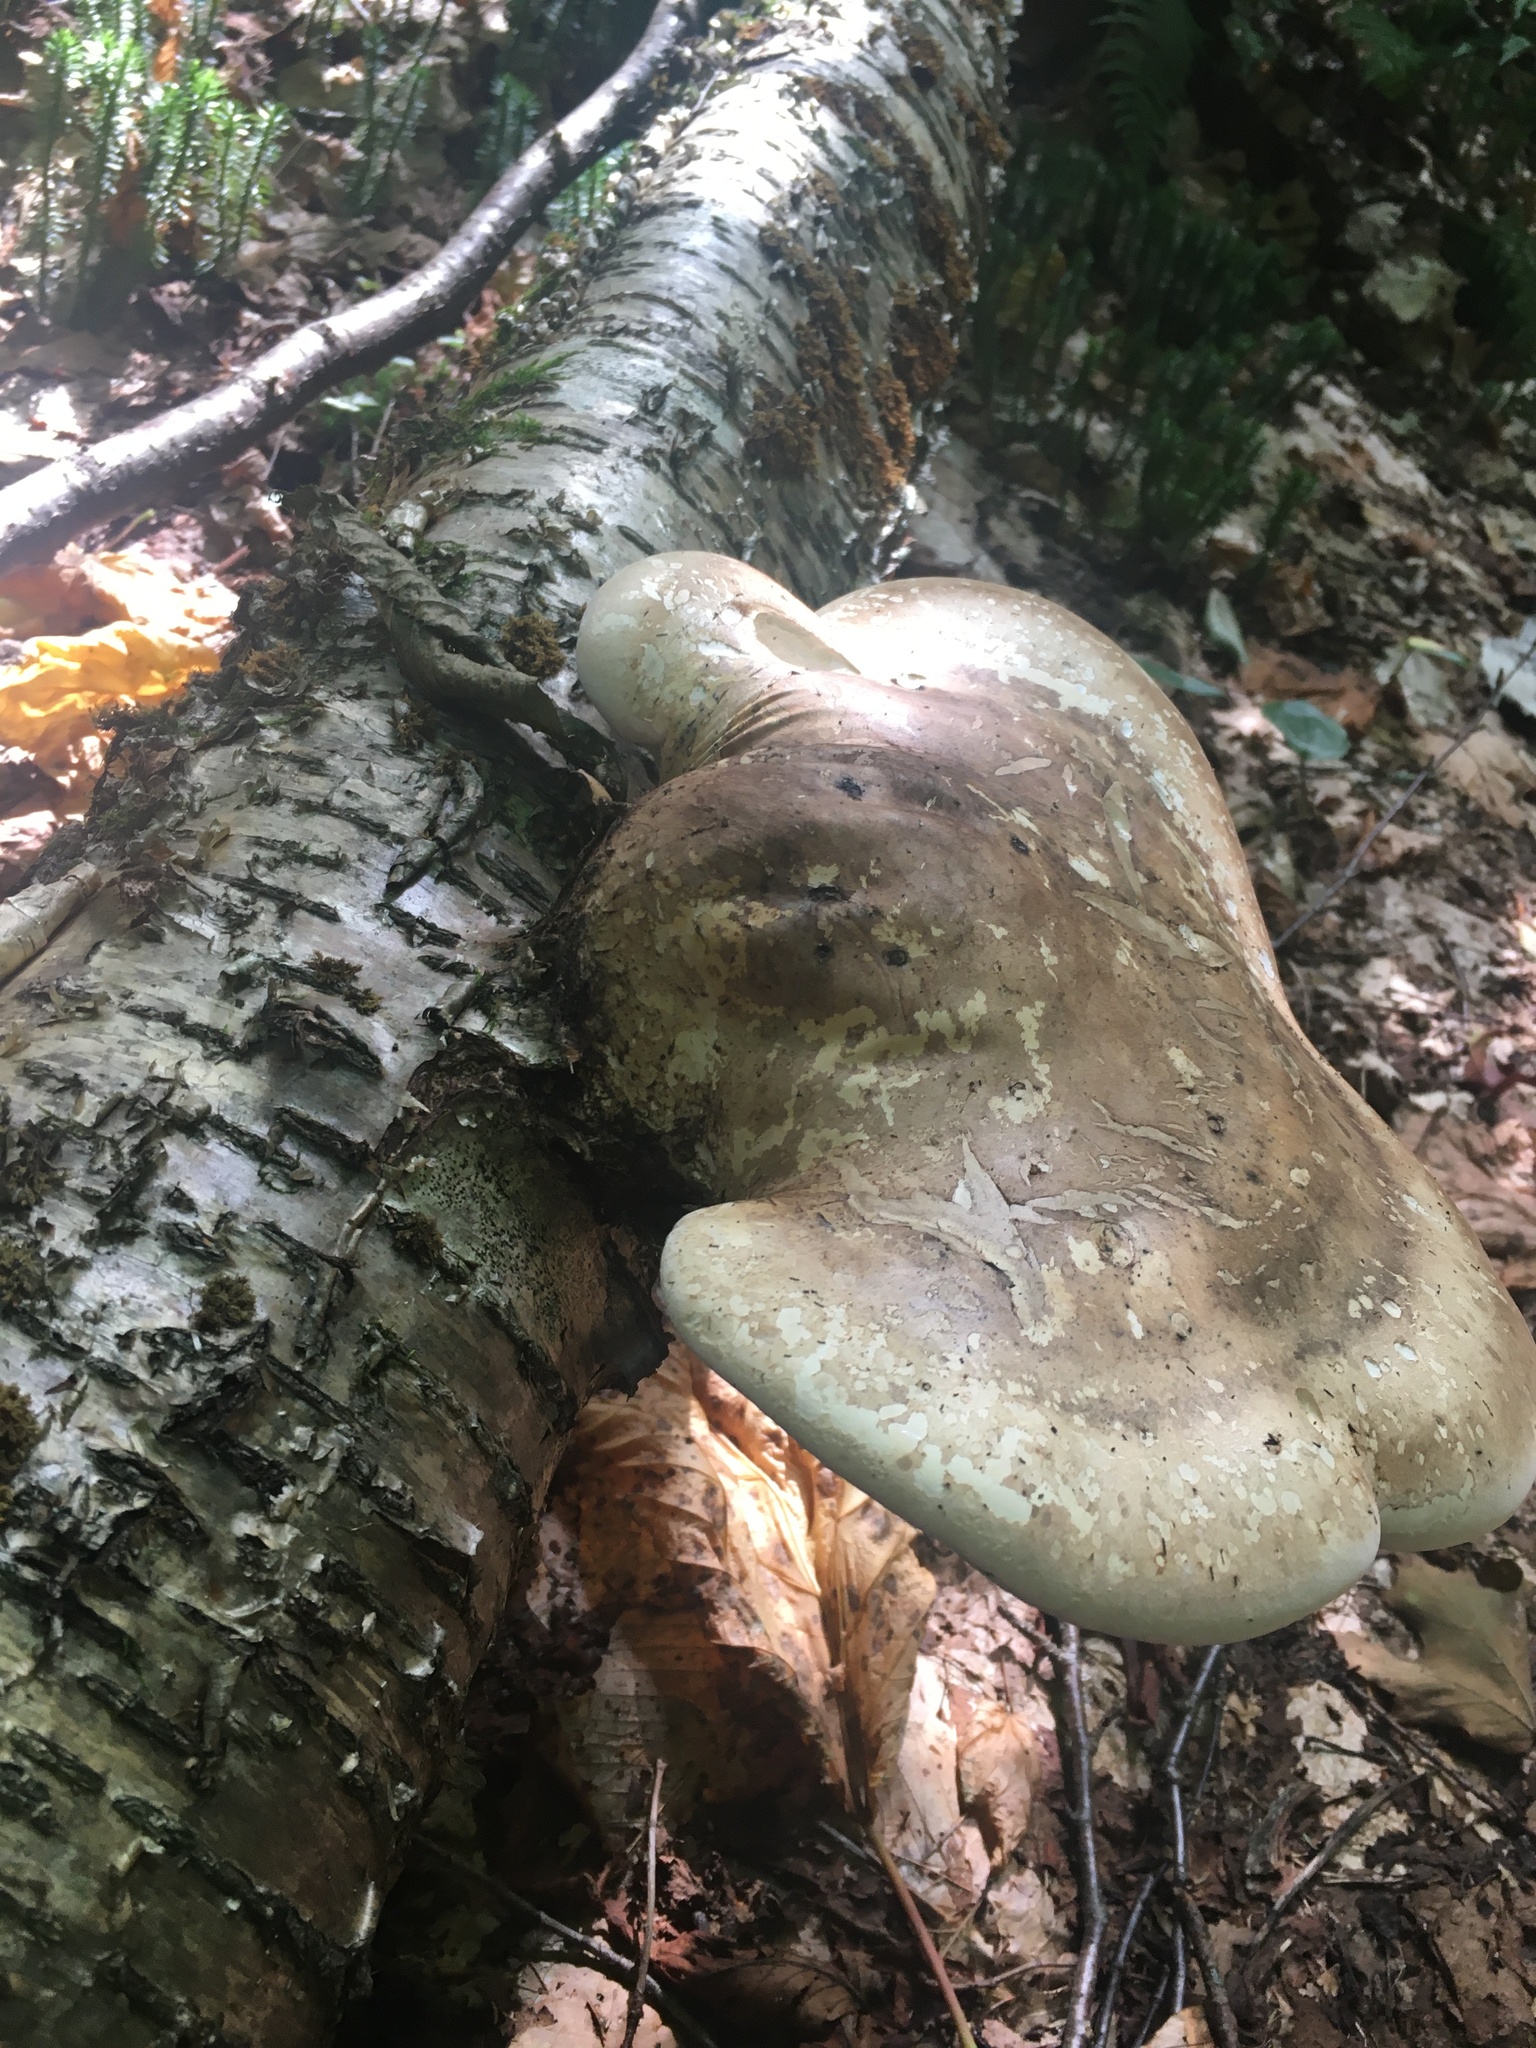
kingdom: Fungi
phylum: Basidiomycota
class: Agaricomycetes
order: Polyporales
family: Fomitopsidaceae
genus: Fomitopsis
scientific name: Fomitopsis betulina
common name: Birch polypore
